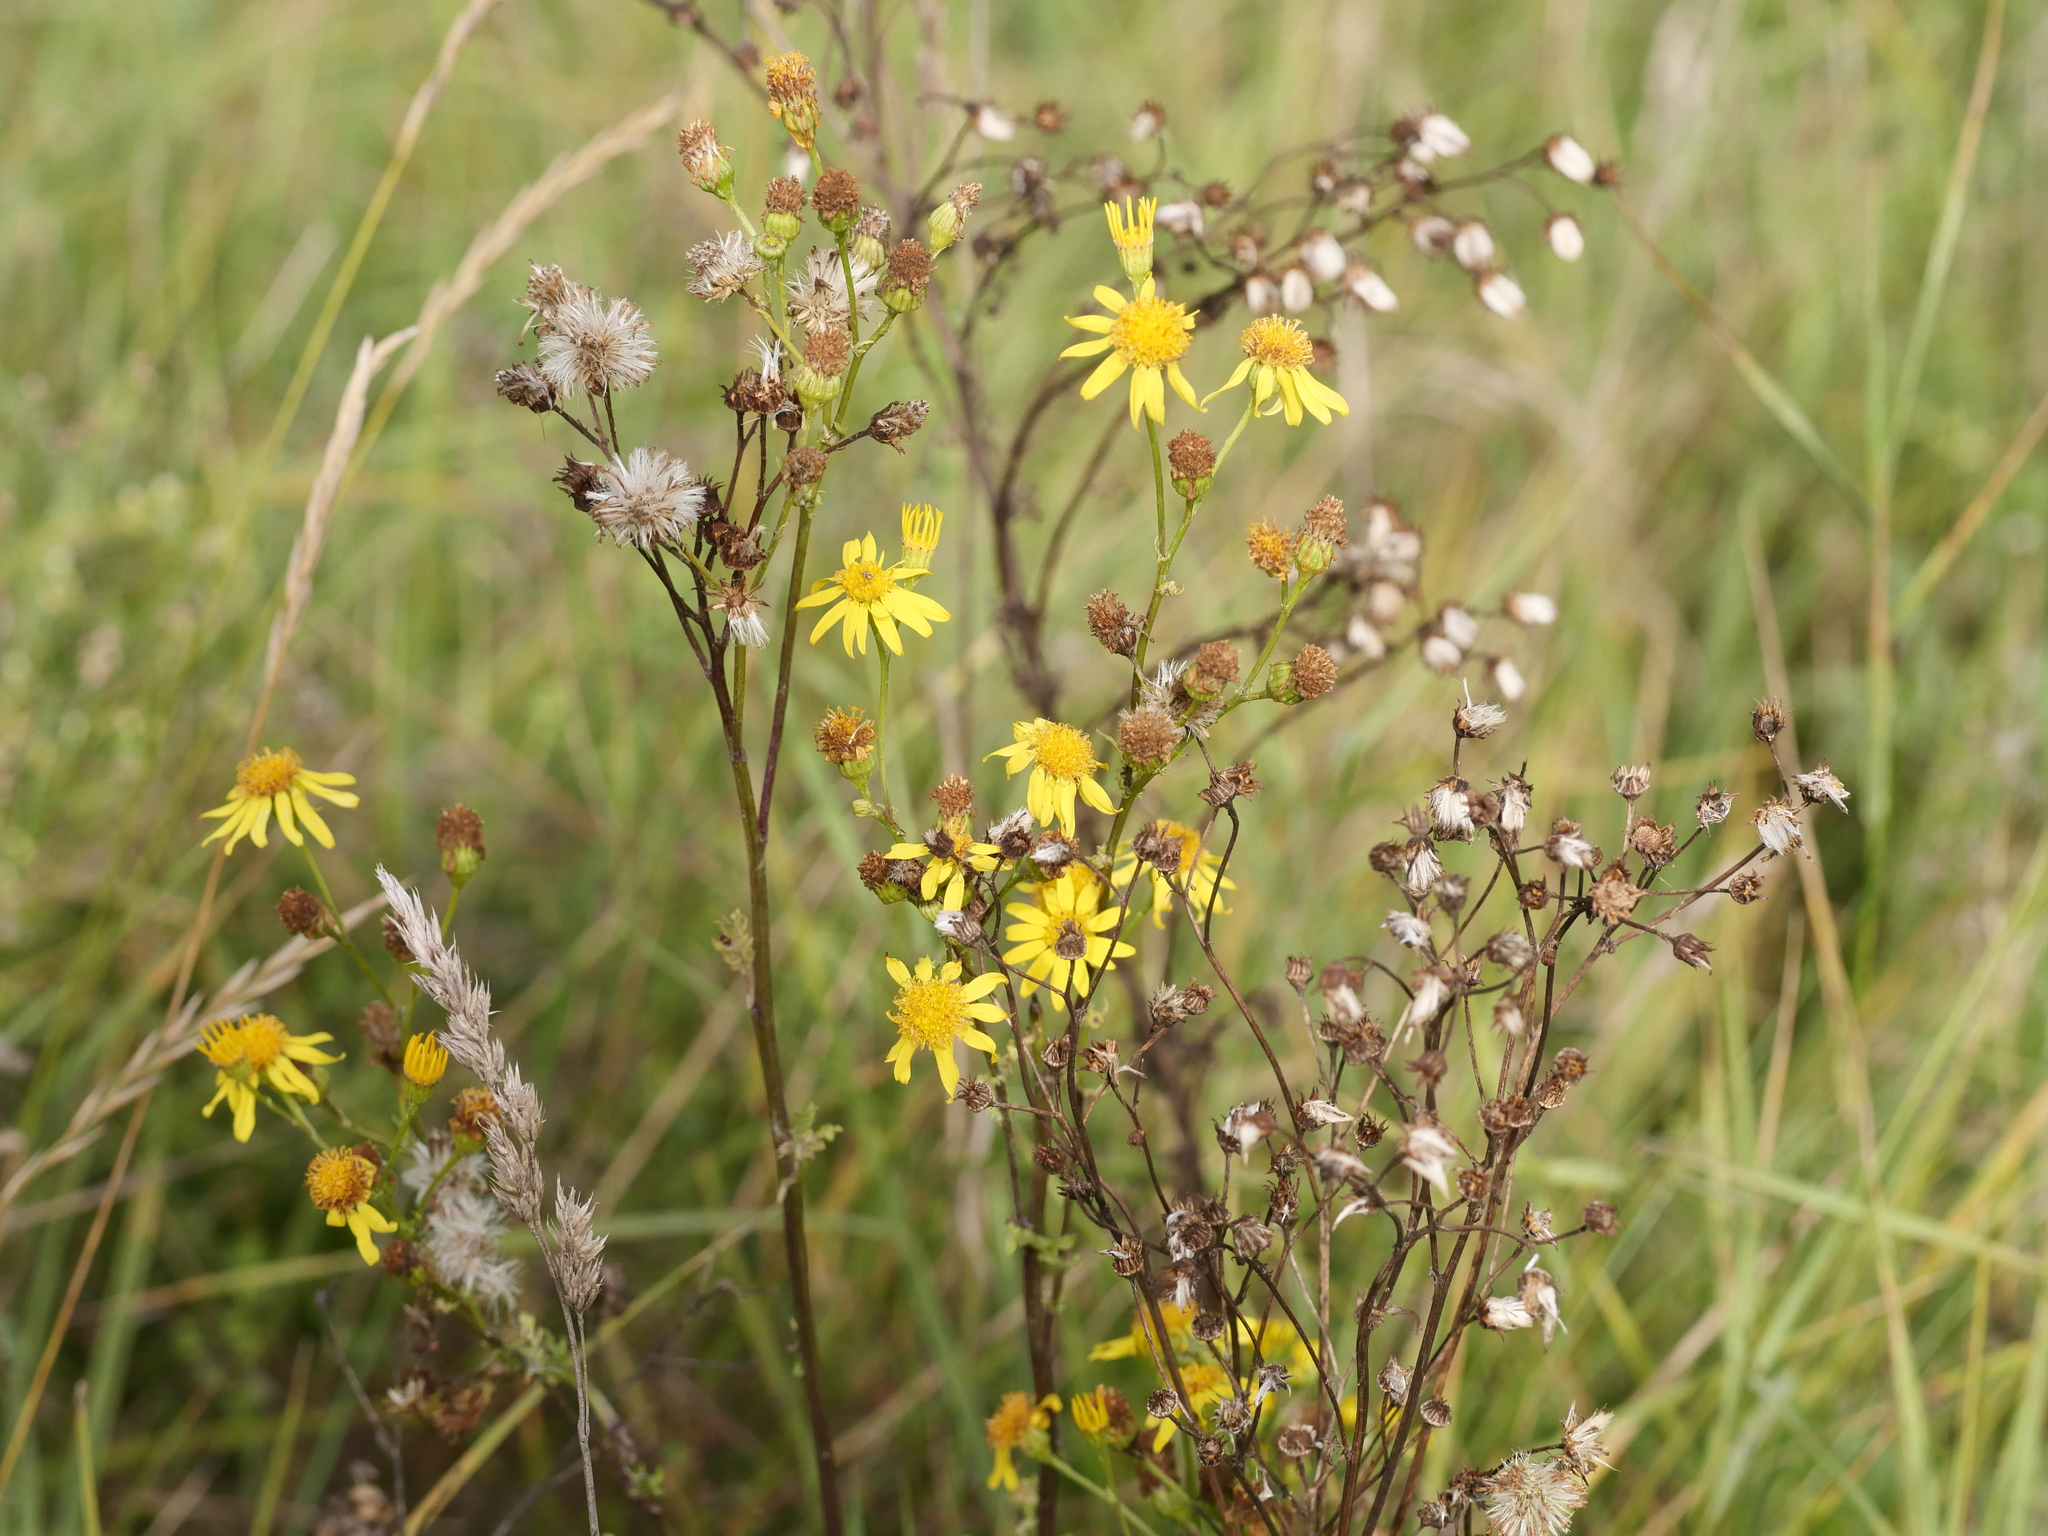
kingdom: Plantae
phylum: Tracheophyta
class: Magnoliopsida
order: Asterales
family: Asteraceae
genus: Jacobaea
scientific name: Jacobaea vulgaris
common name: Stinking willie
